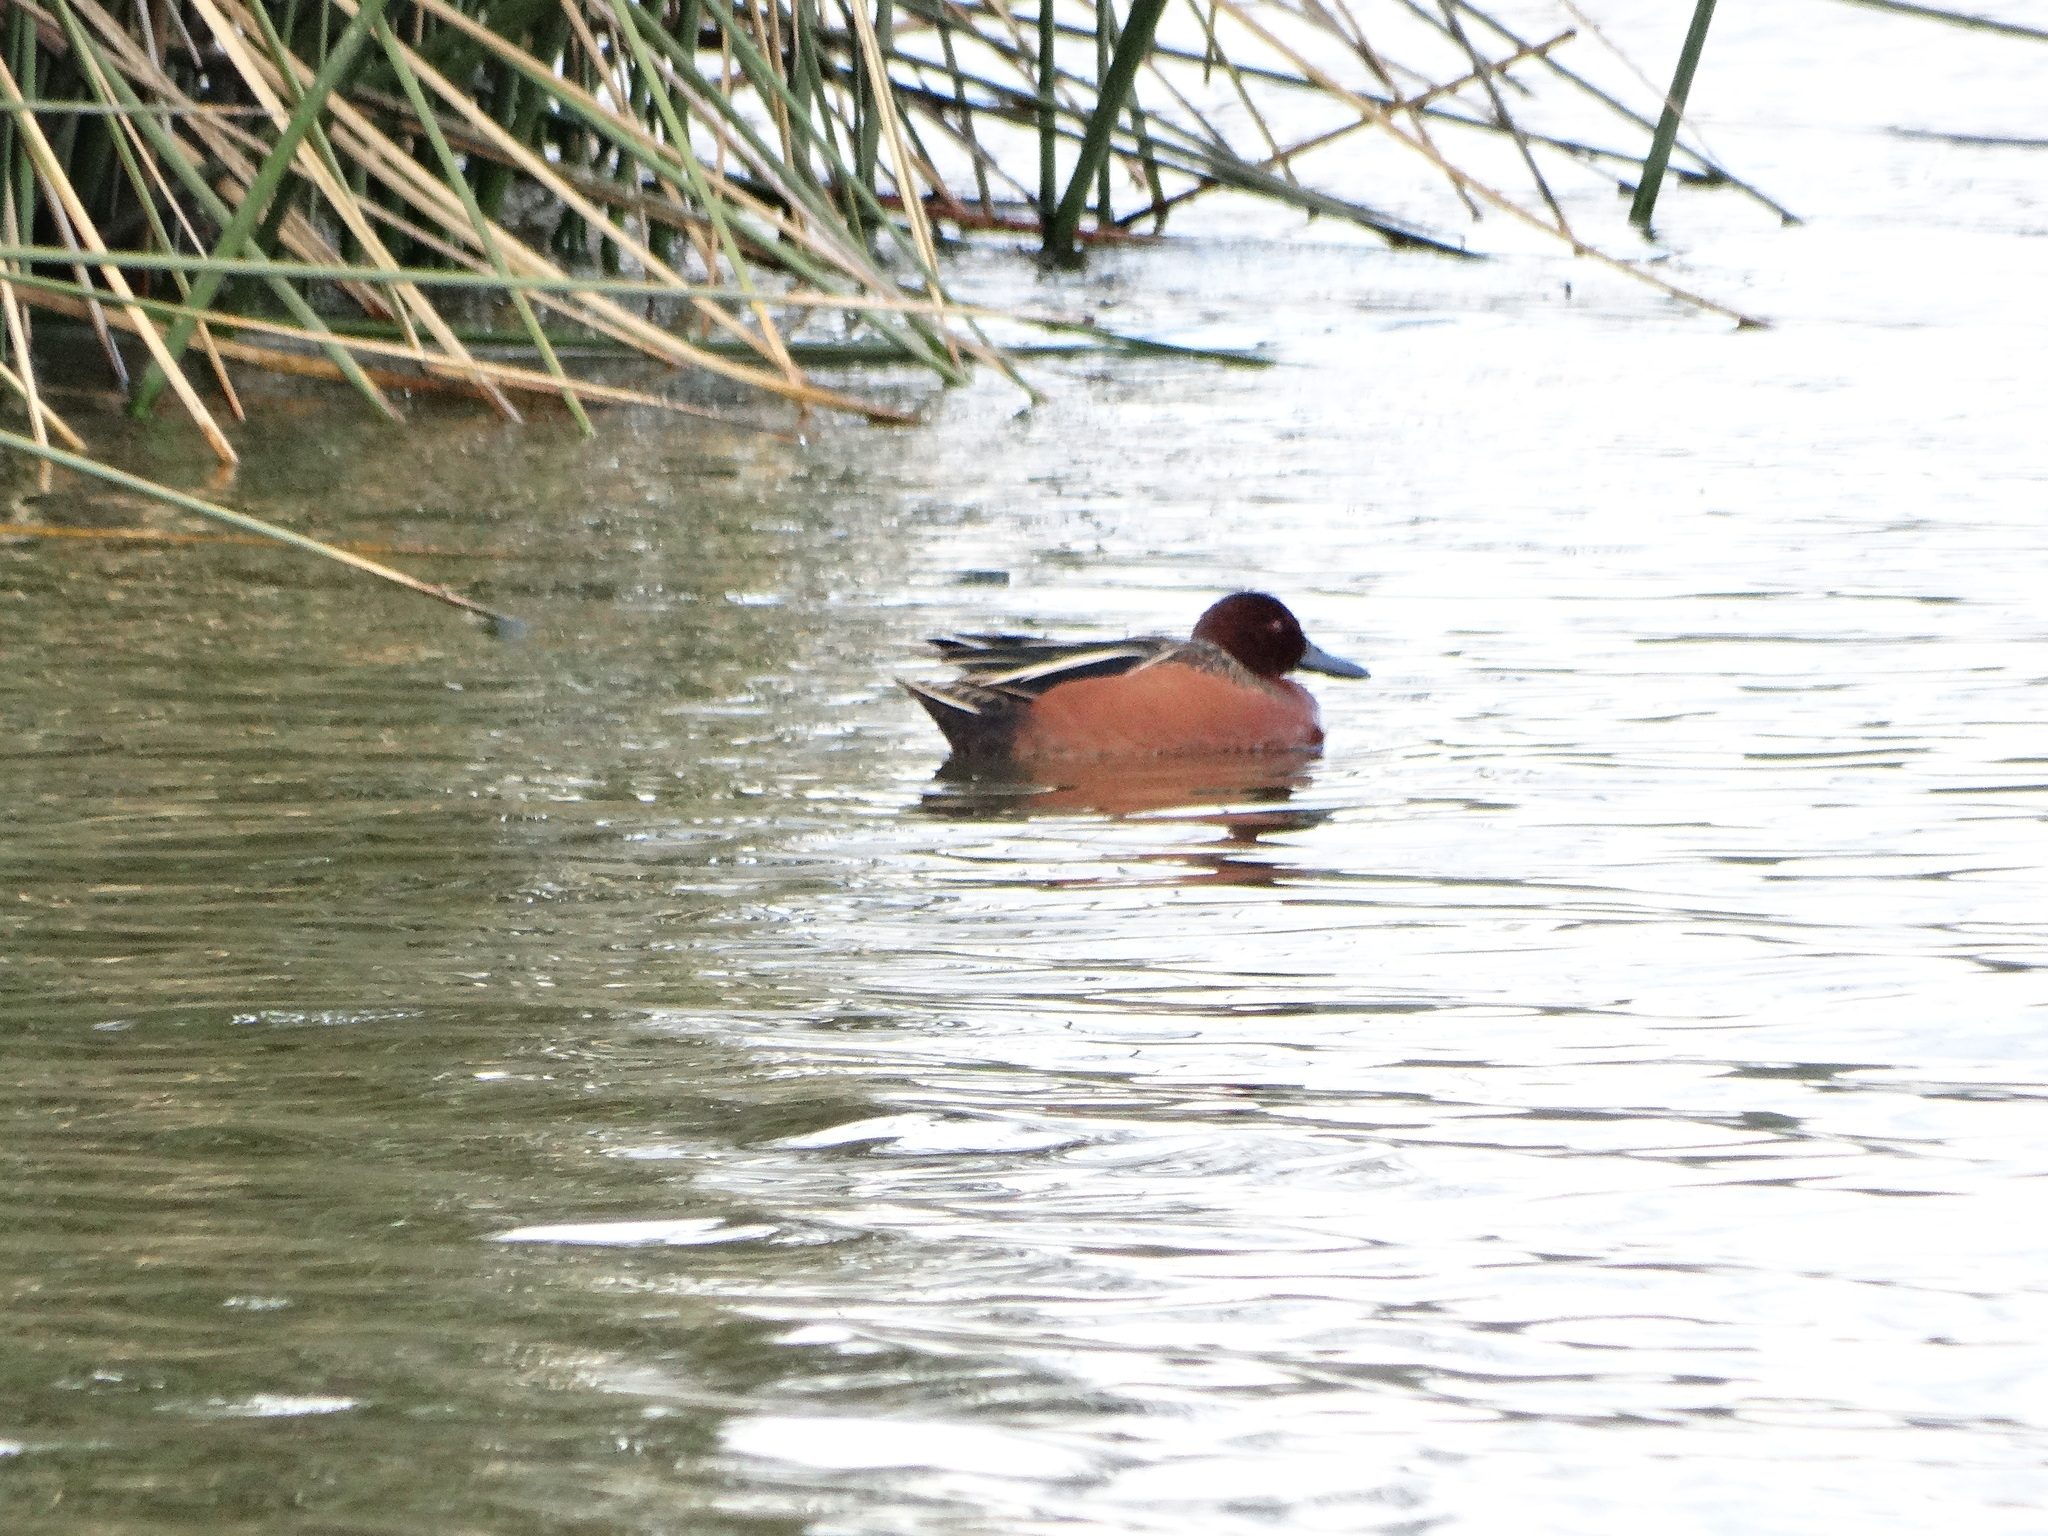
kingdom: Animalia
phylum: Chordata
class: Aves
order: Anseriformes
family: Anatidae
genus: Spatula
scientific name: Spatula cyanoptera
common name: Cinnamon teal
